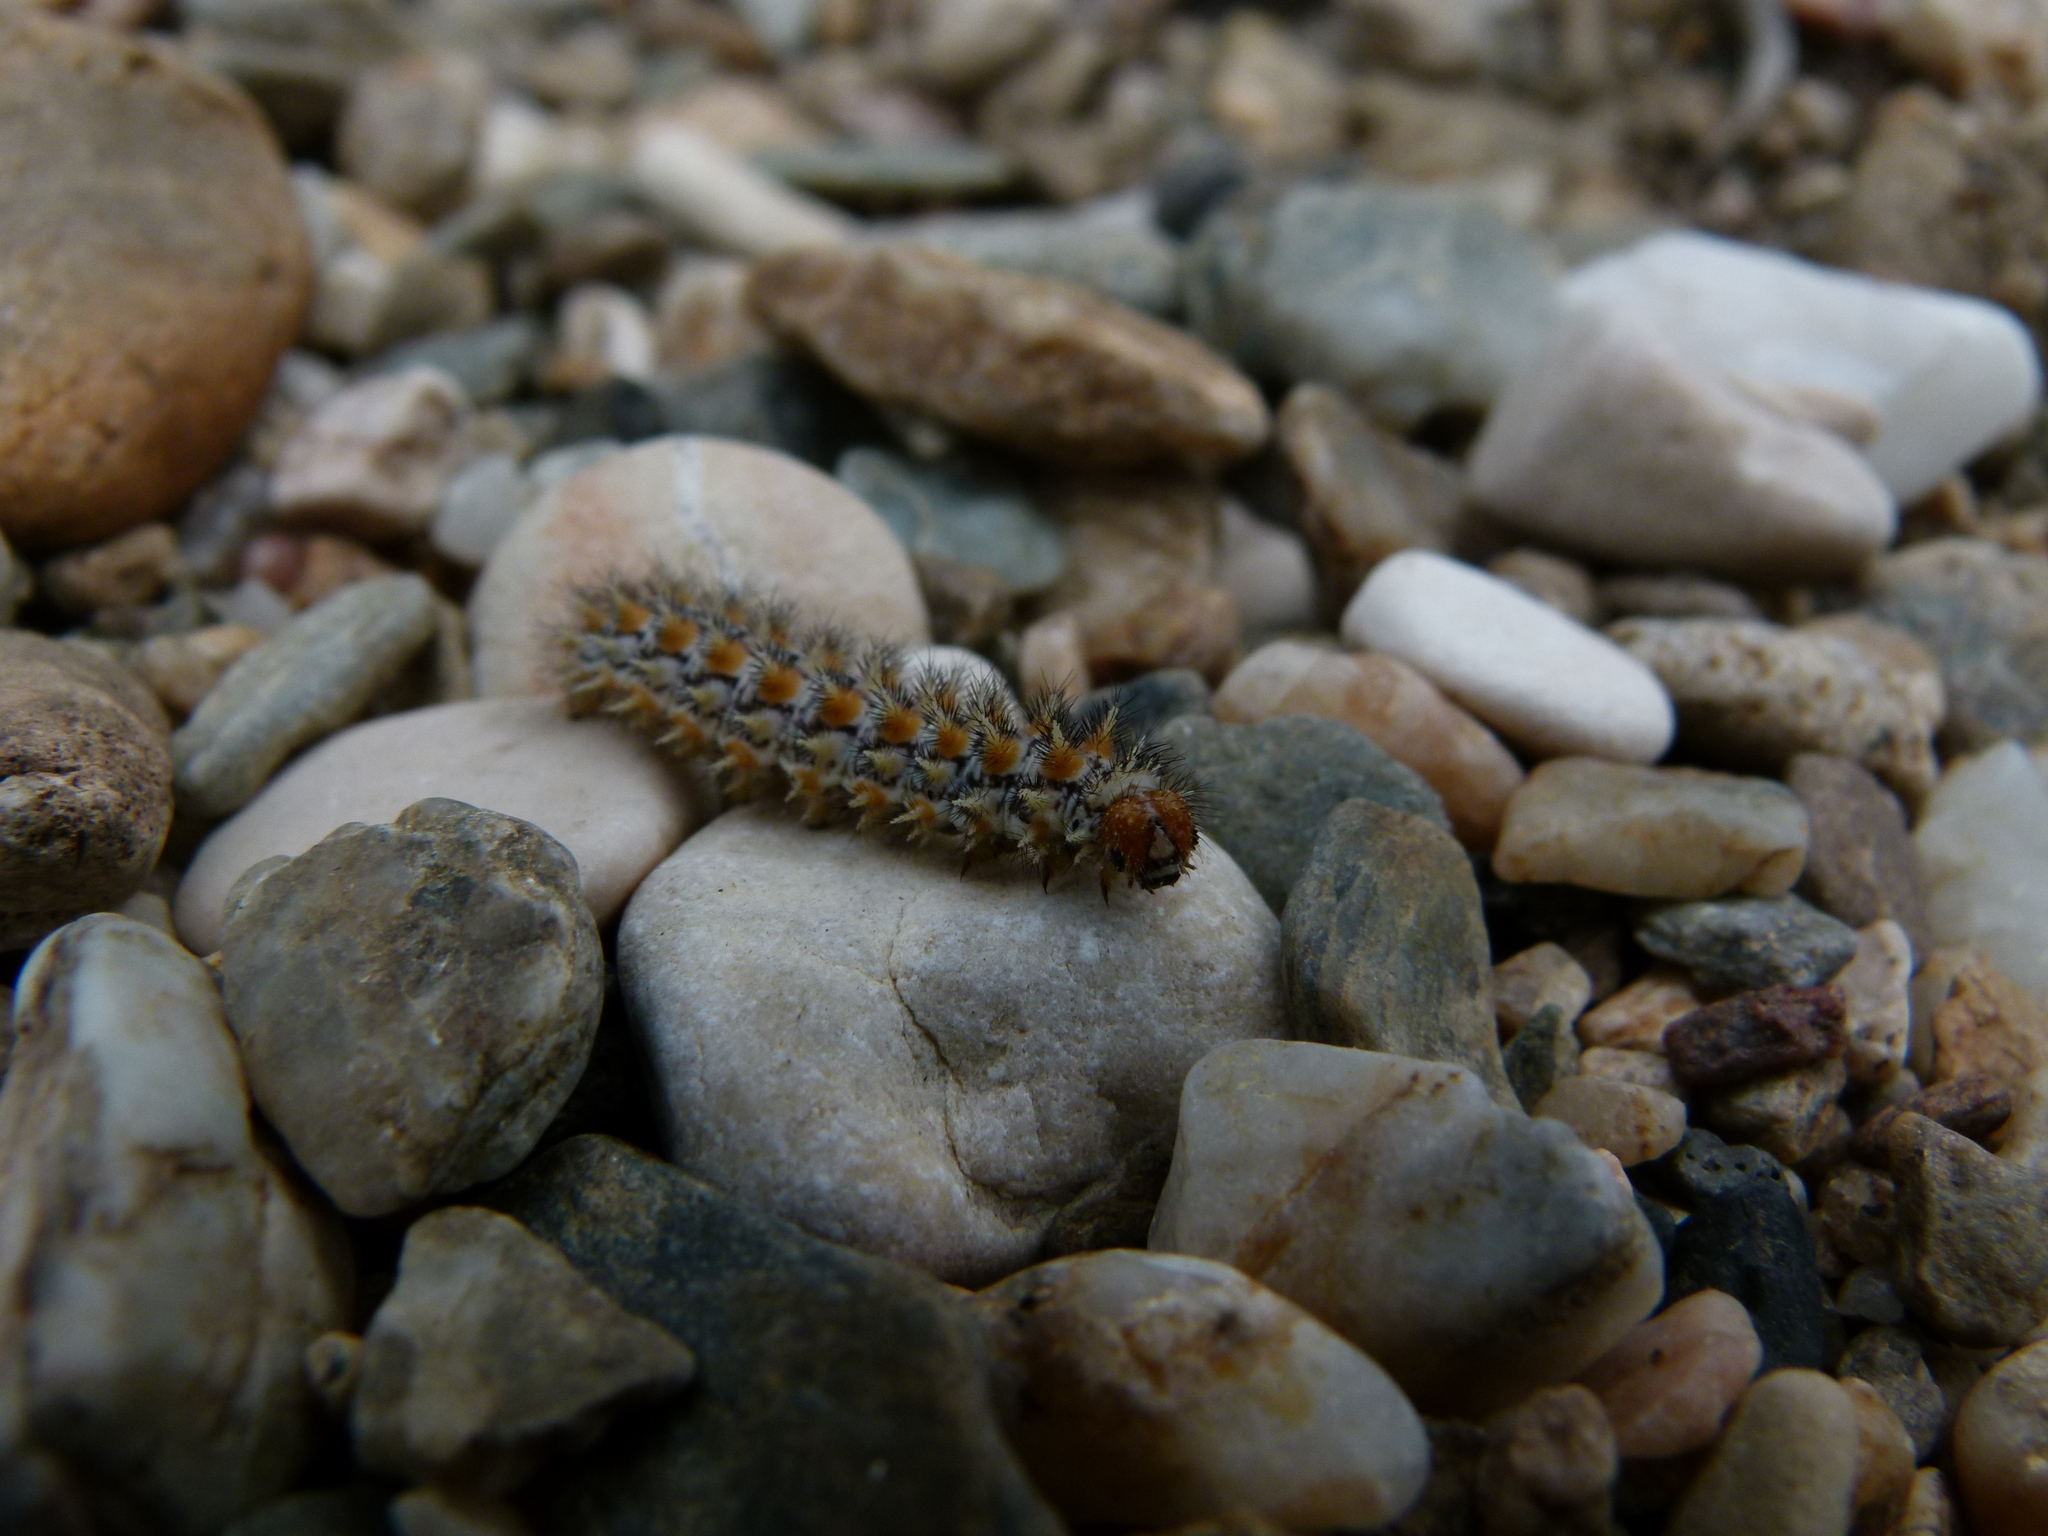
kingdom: Animalia
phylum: Arthropoda
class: Insecta
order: Lepidoptera
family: Nymphalidae
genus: Melitaea
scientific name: Melitaea didyma
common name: Spotted fritillary
